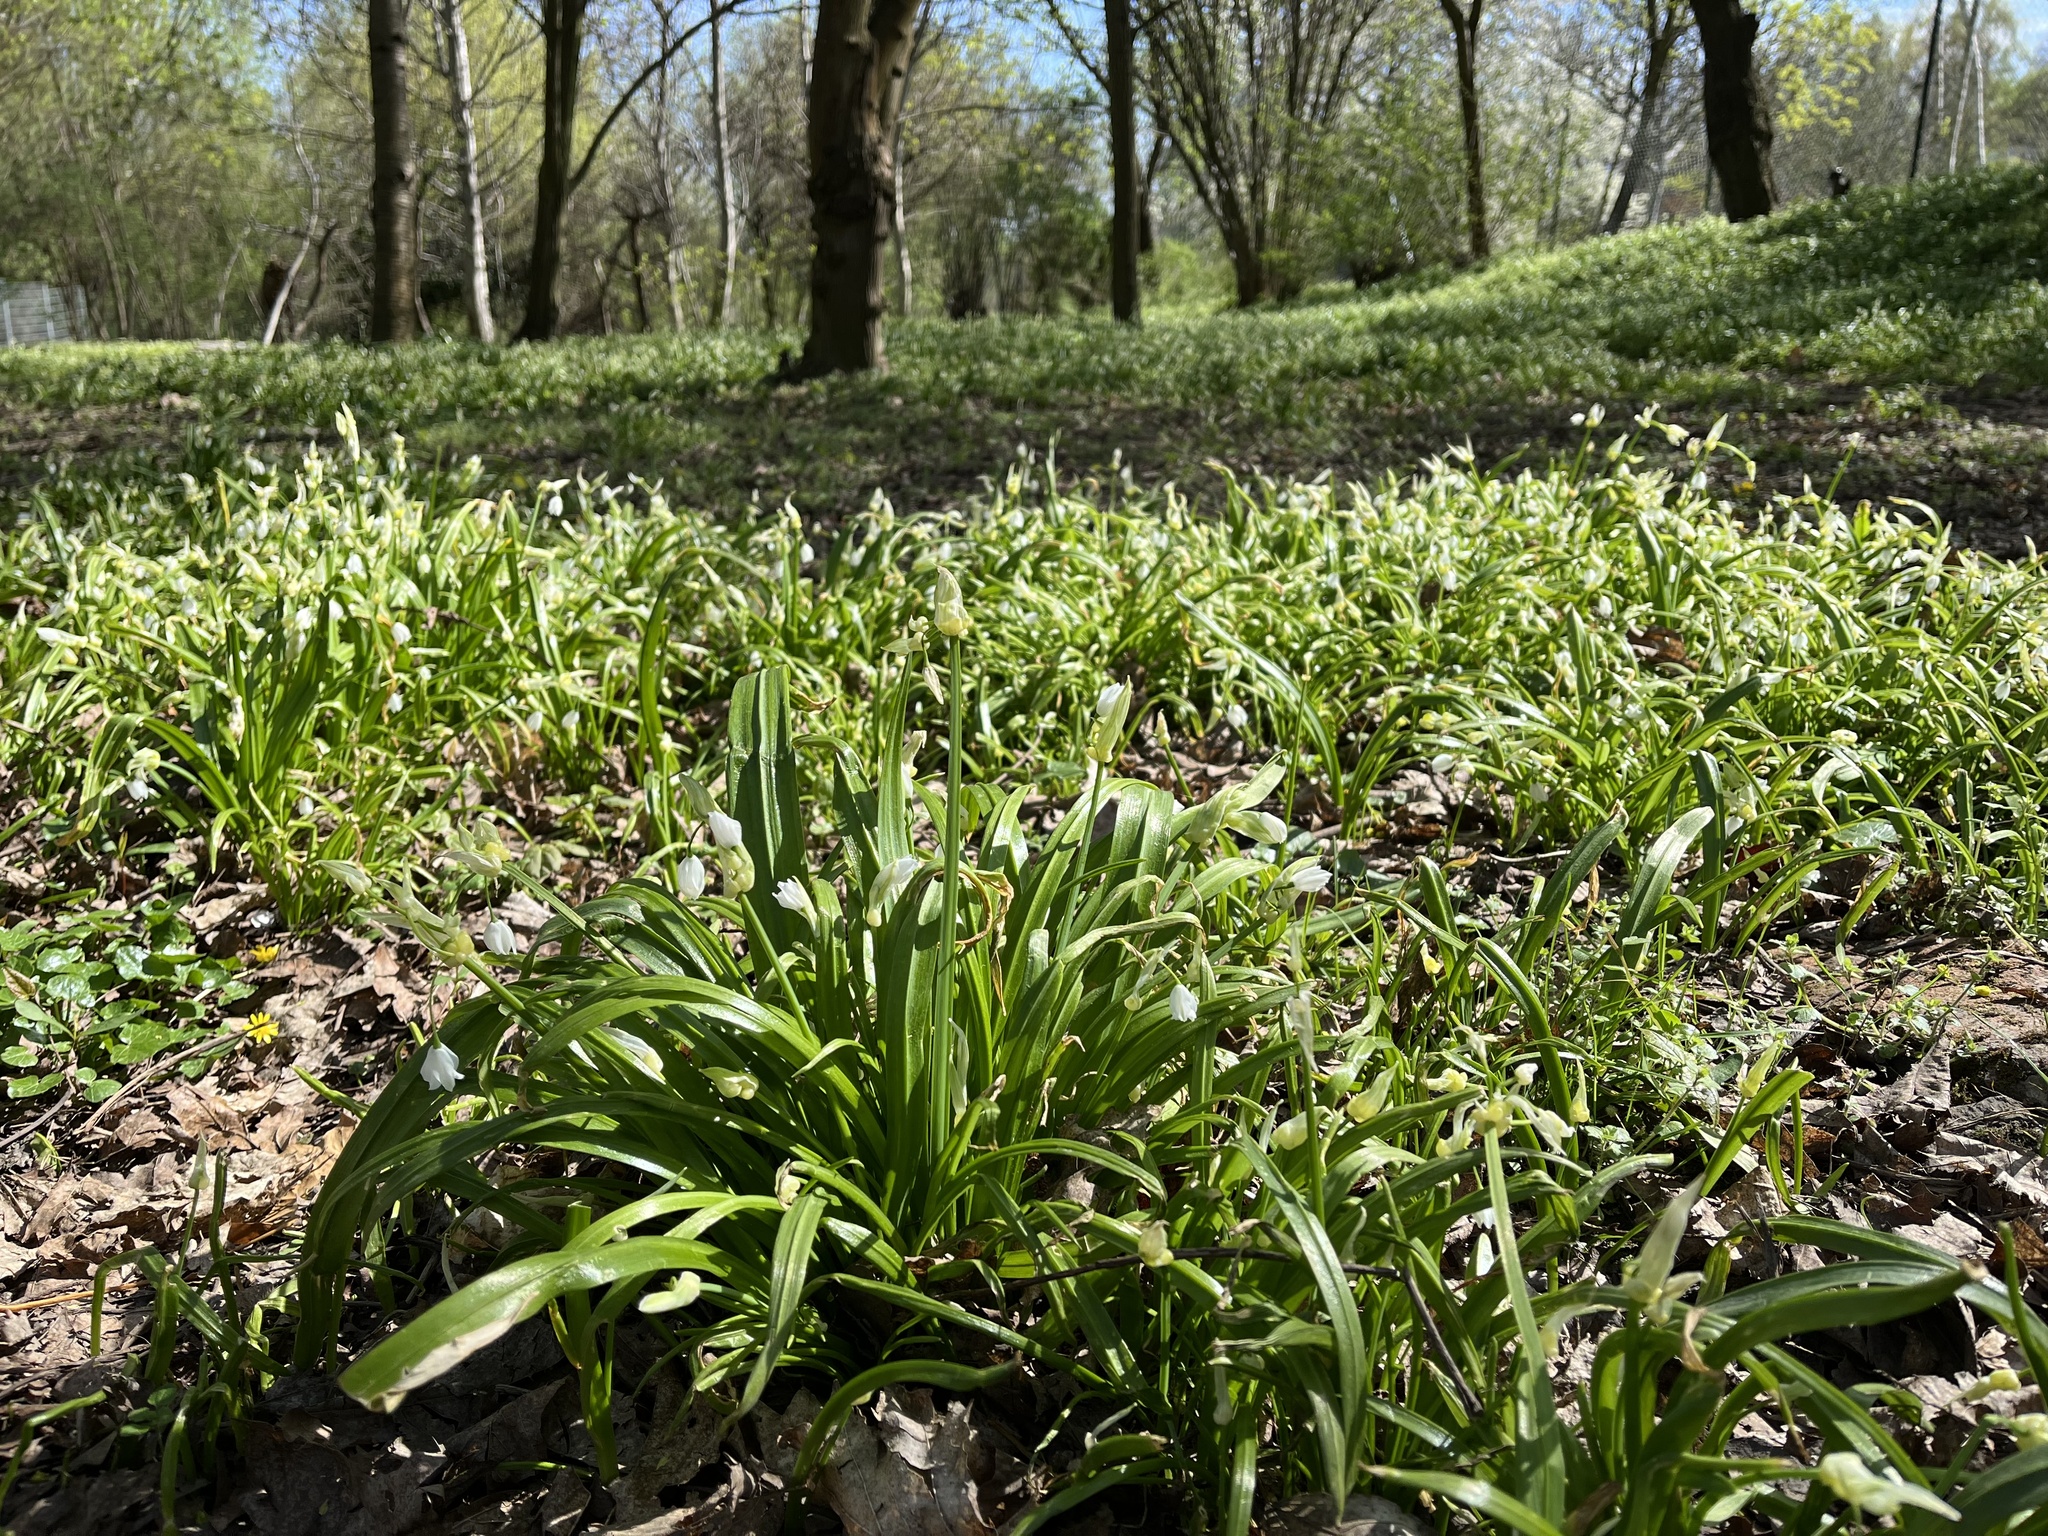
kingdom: Plantae
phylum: Tracheophyta
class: Liliopsida
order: Asparagales
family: Amaryllidaceae
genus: Allium
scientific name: Allium paradoxum
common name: Few-flowered garlic
